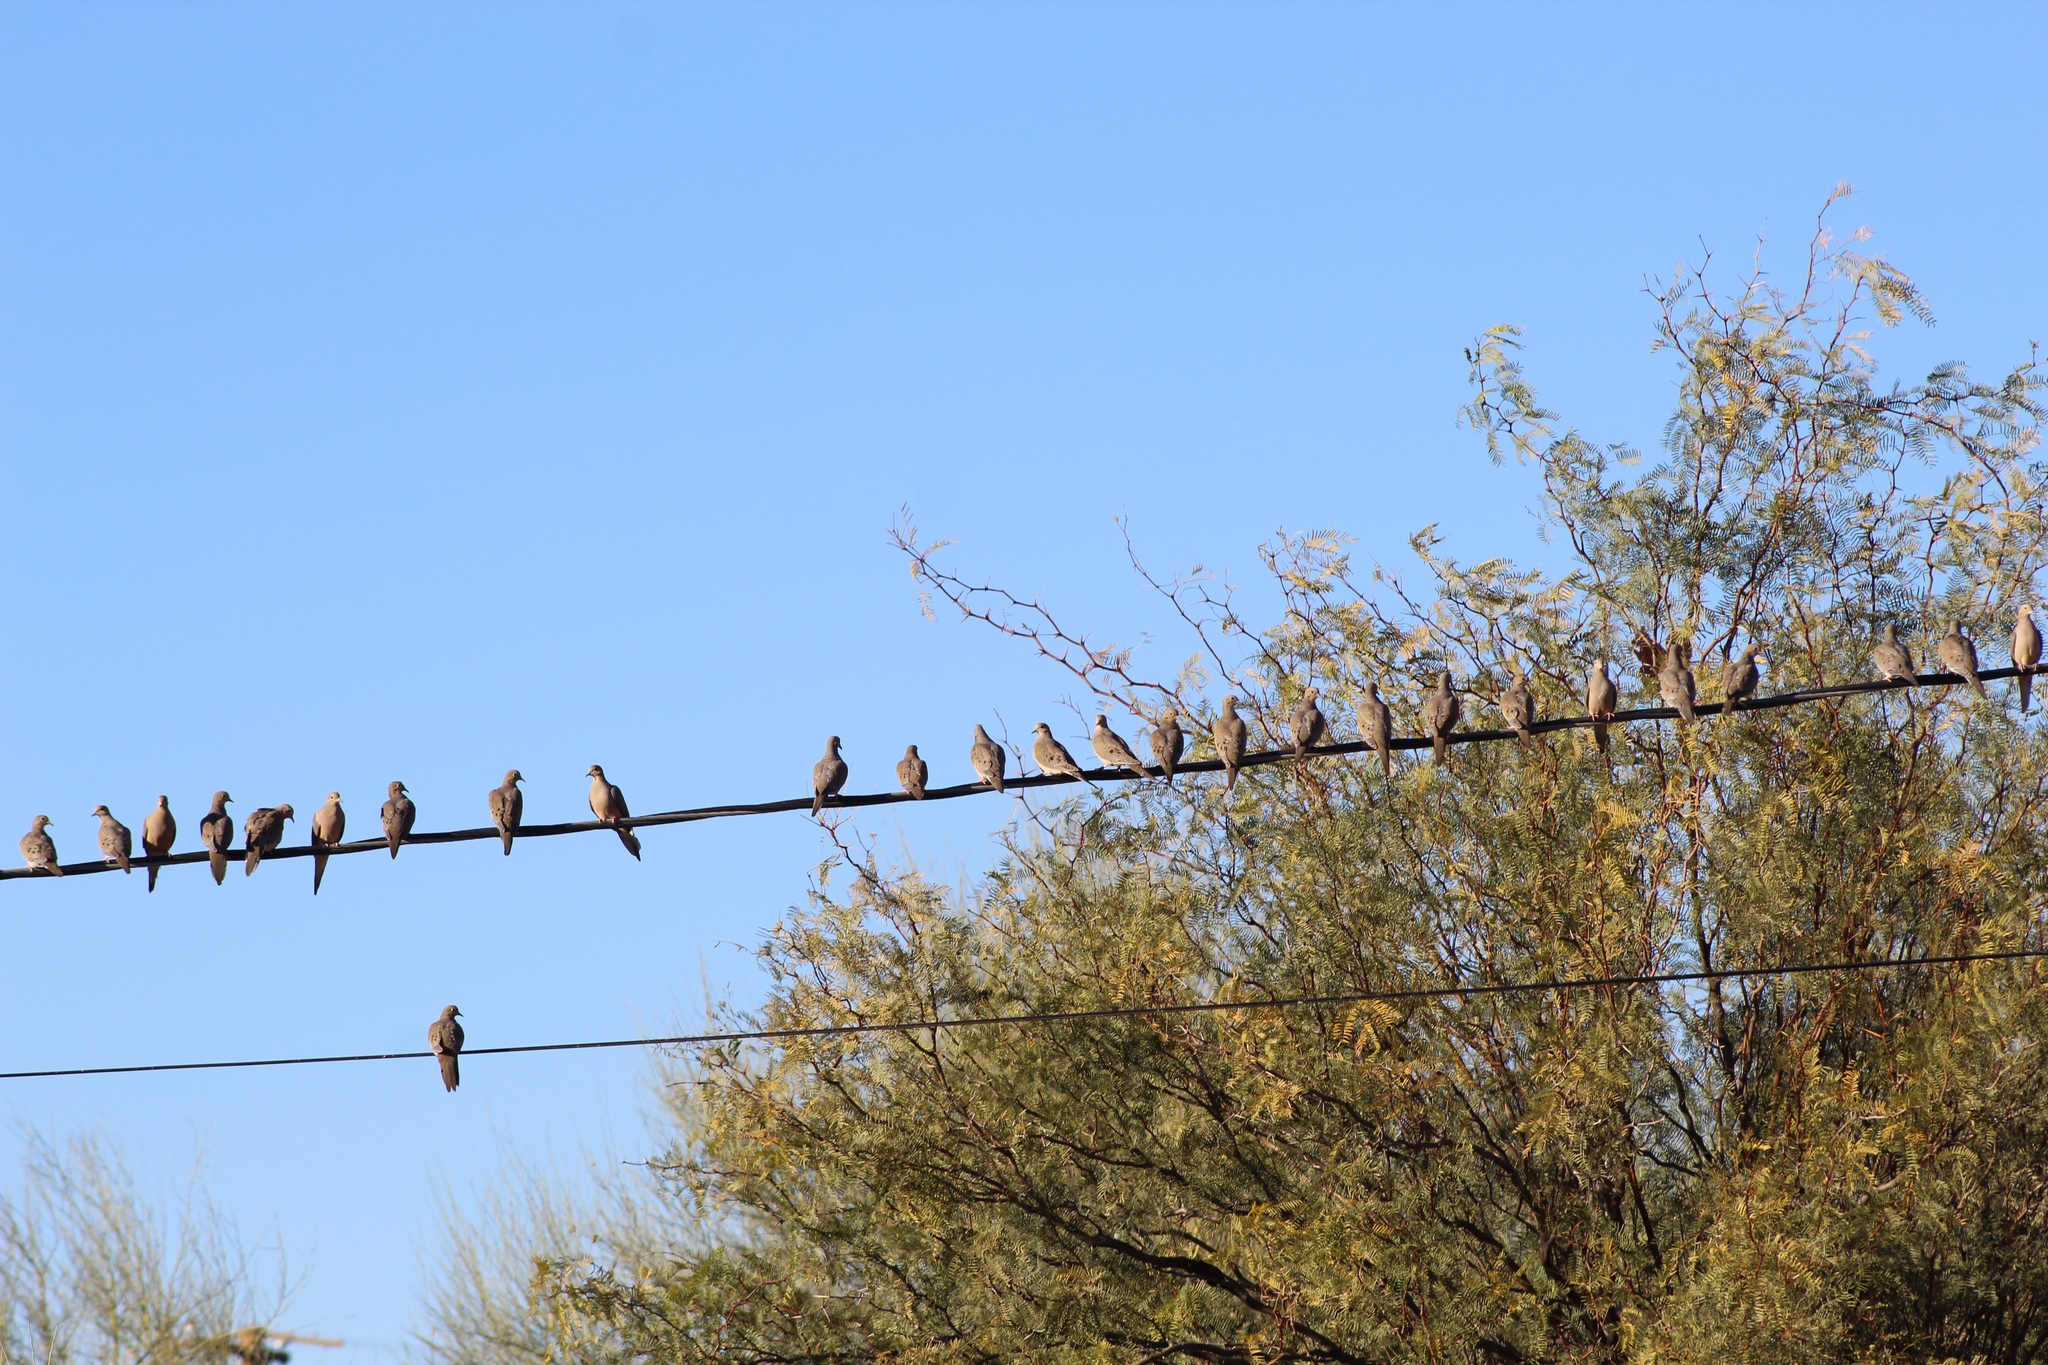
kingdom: Animalia
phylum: Chordata
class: Aves
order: Columbiformes
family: Columbidae
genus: Zenaida
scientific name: Zenaida macroura
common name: Mourning dove
